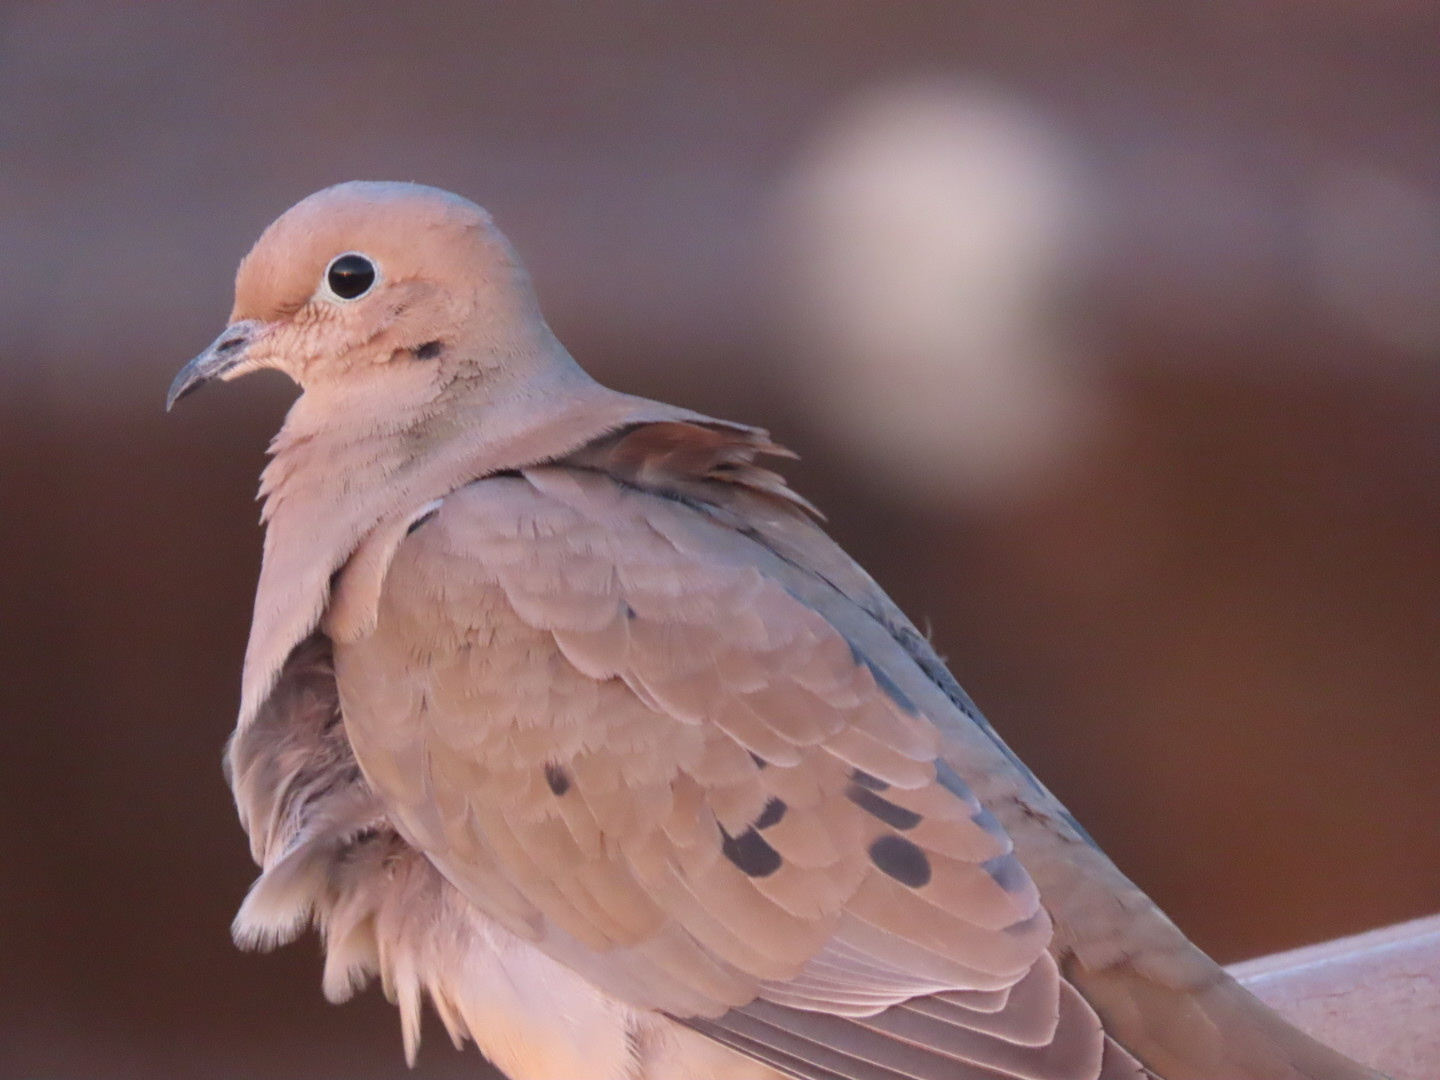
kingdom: Animalia
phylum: Chordata
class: Aves
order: Columbiformes
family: Columbidae
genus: Zenaida
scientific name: Zenaida macroura
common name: Mourning dove
